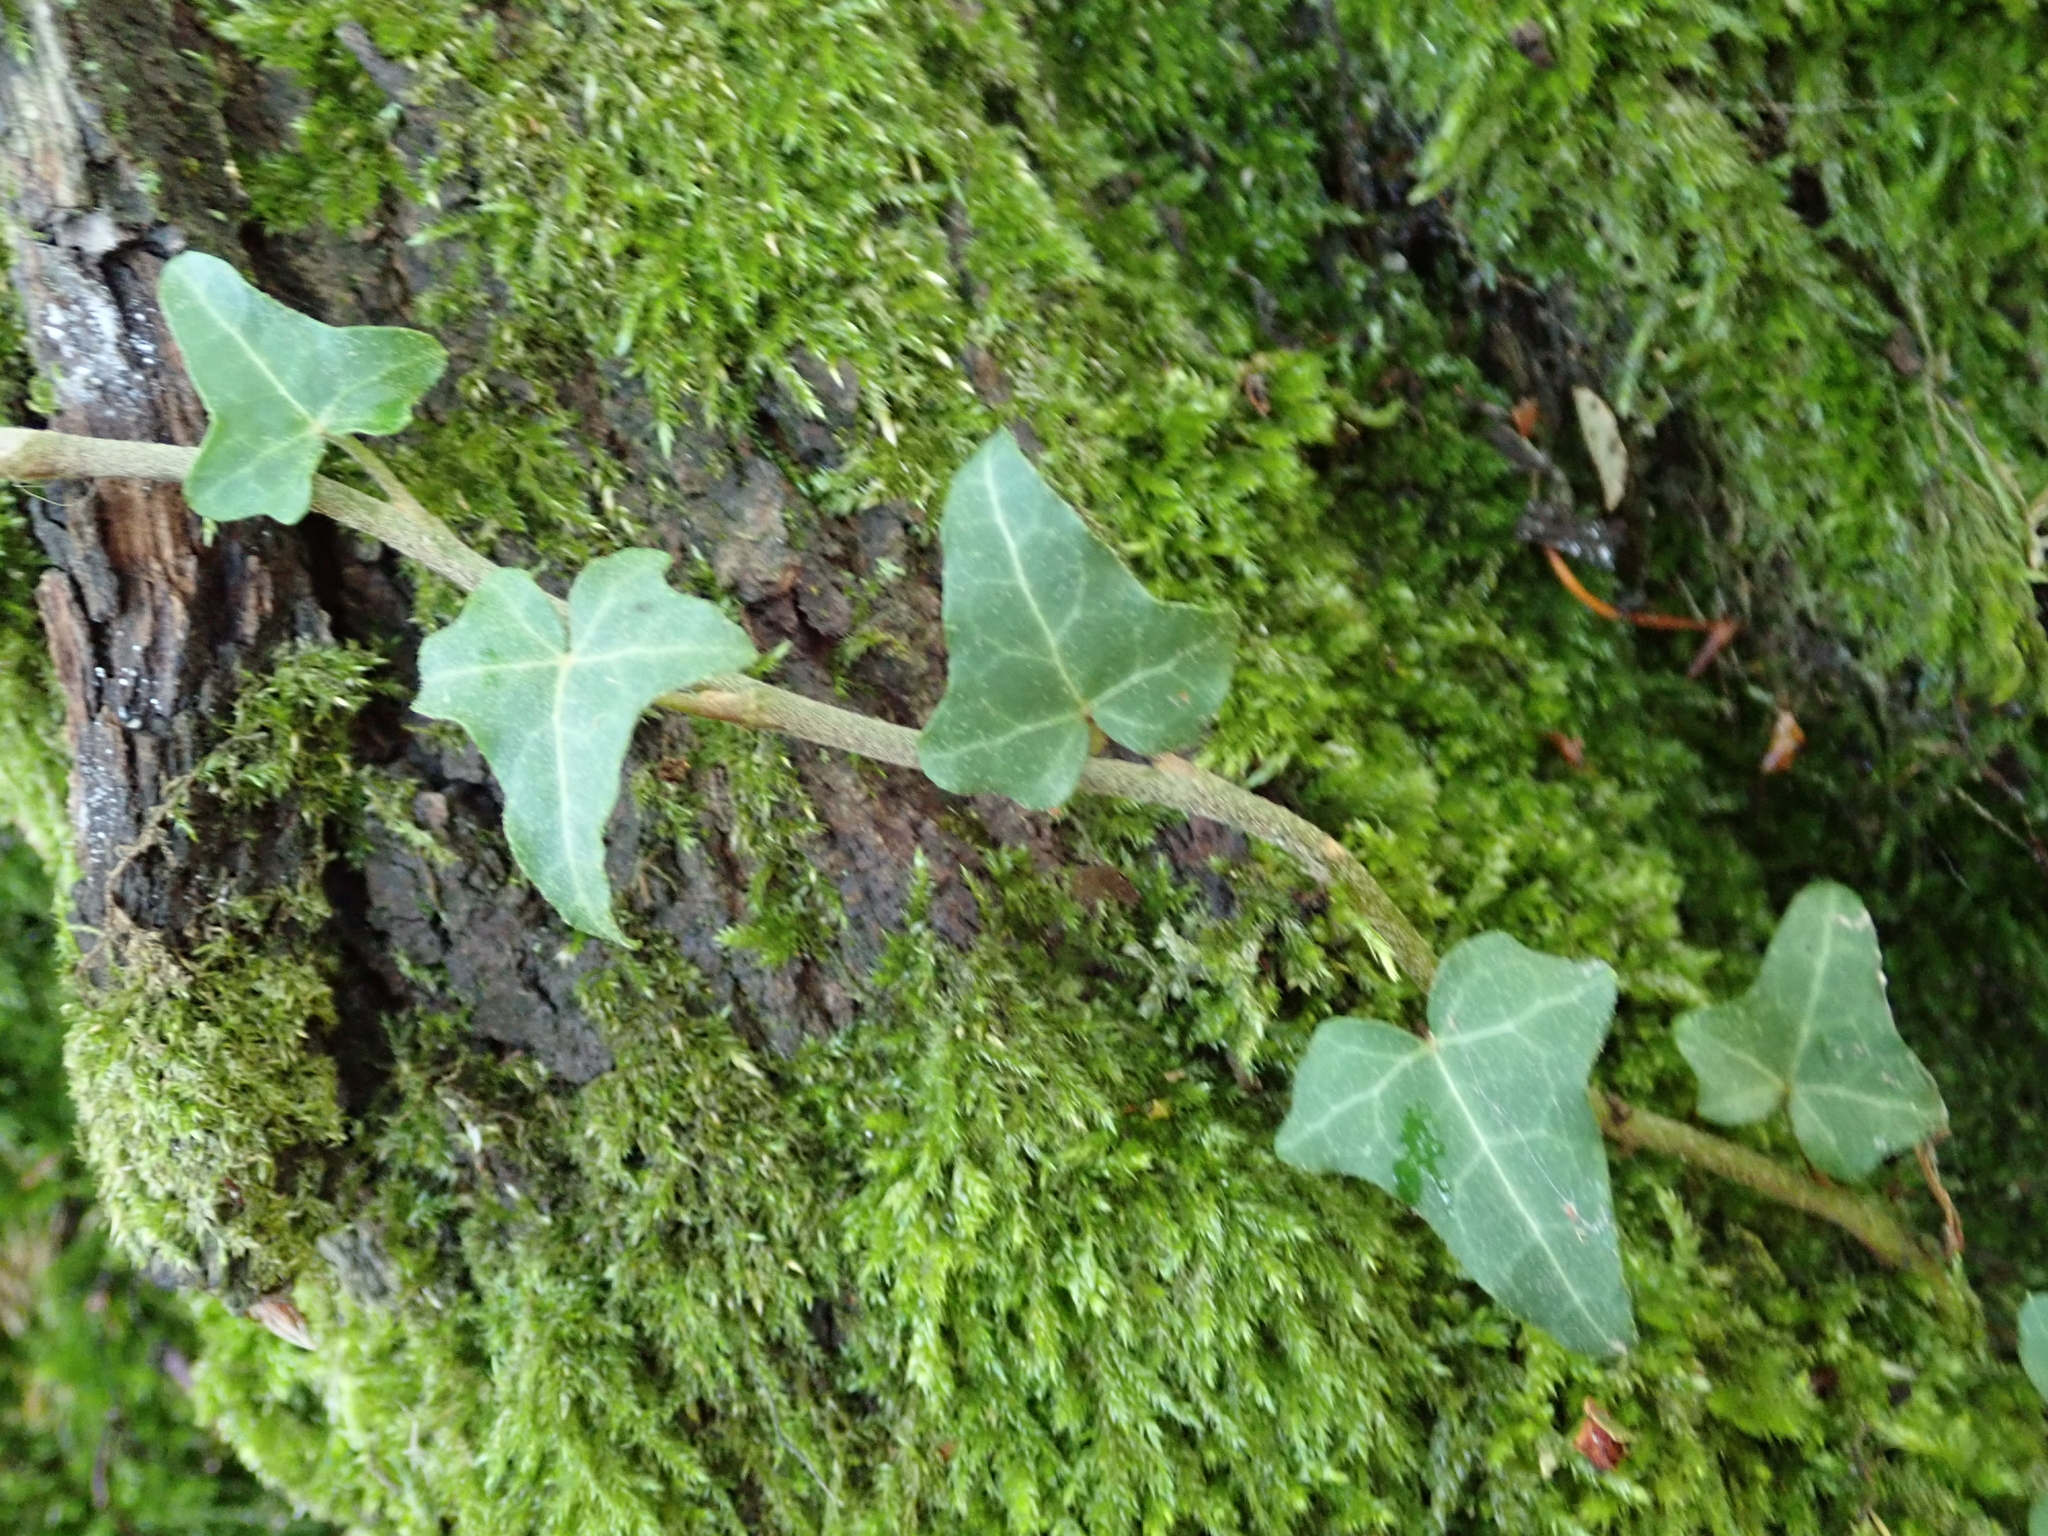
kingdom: Plantae
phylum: Tracheophyta
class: Magnoliopsida
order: Apiales
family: Araliaceae
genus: Hedera
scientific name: Hedera helix
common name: Ivy
